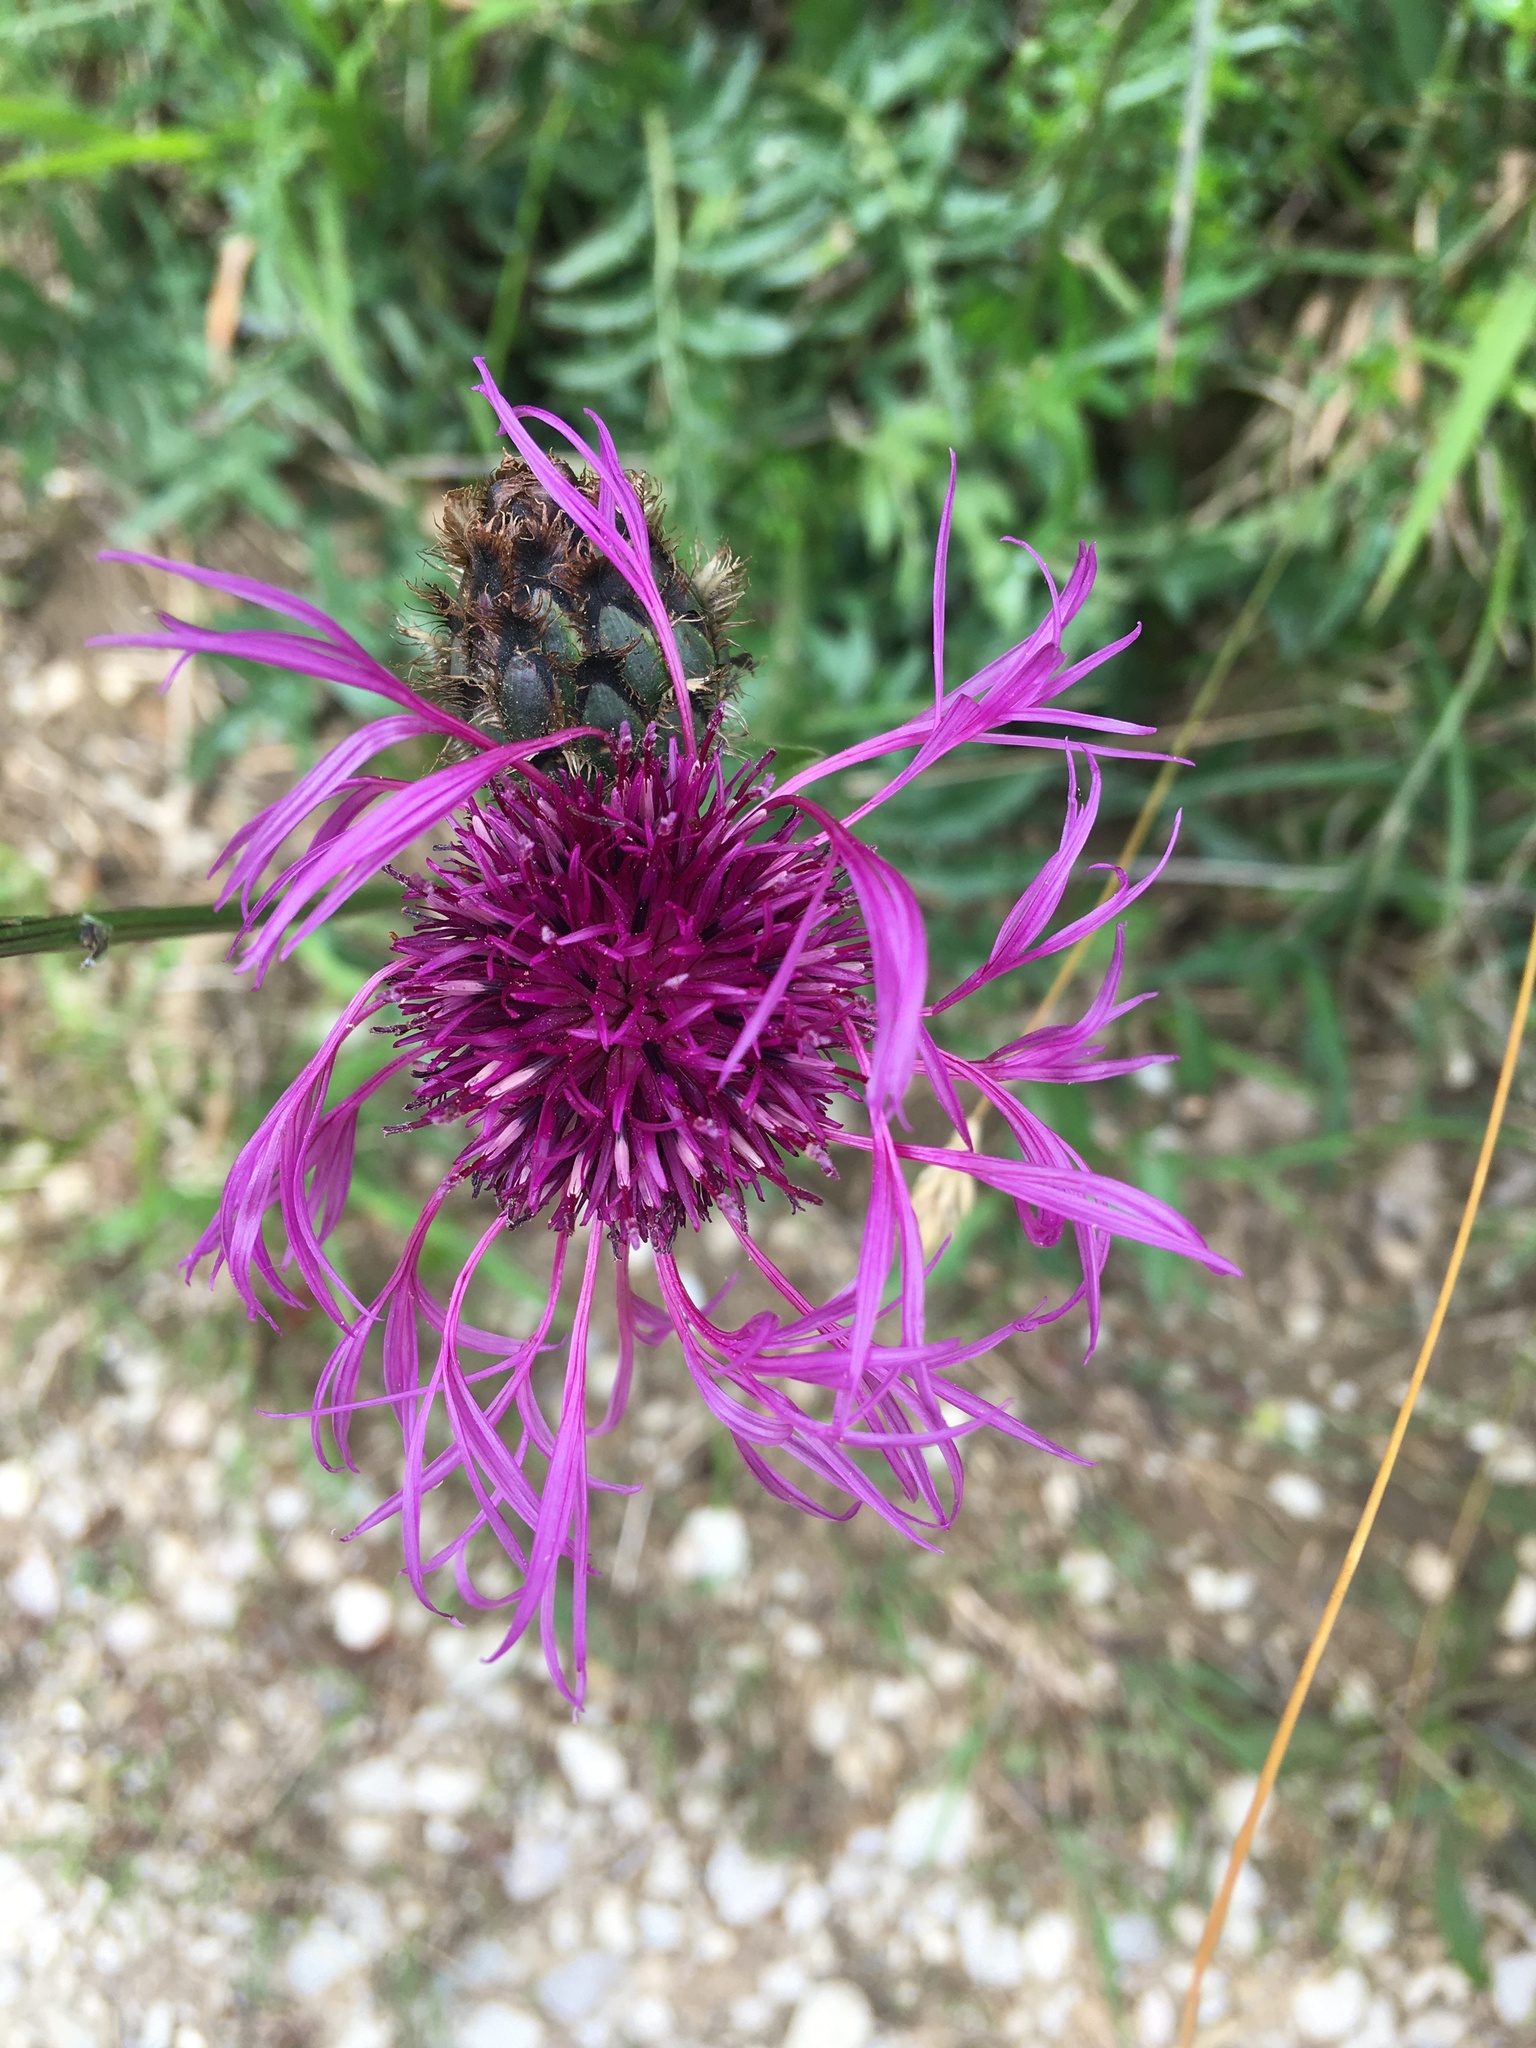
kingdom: Plantae
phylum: Tracheophyta
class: Magnoliopsida
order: Asterales
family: Asteraceae
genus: Centaurea
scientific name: Centaurea scabiosa
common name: Greater knapweed
